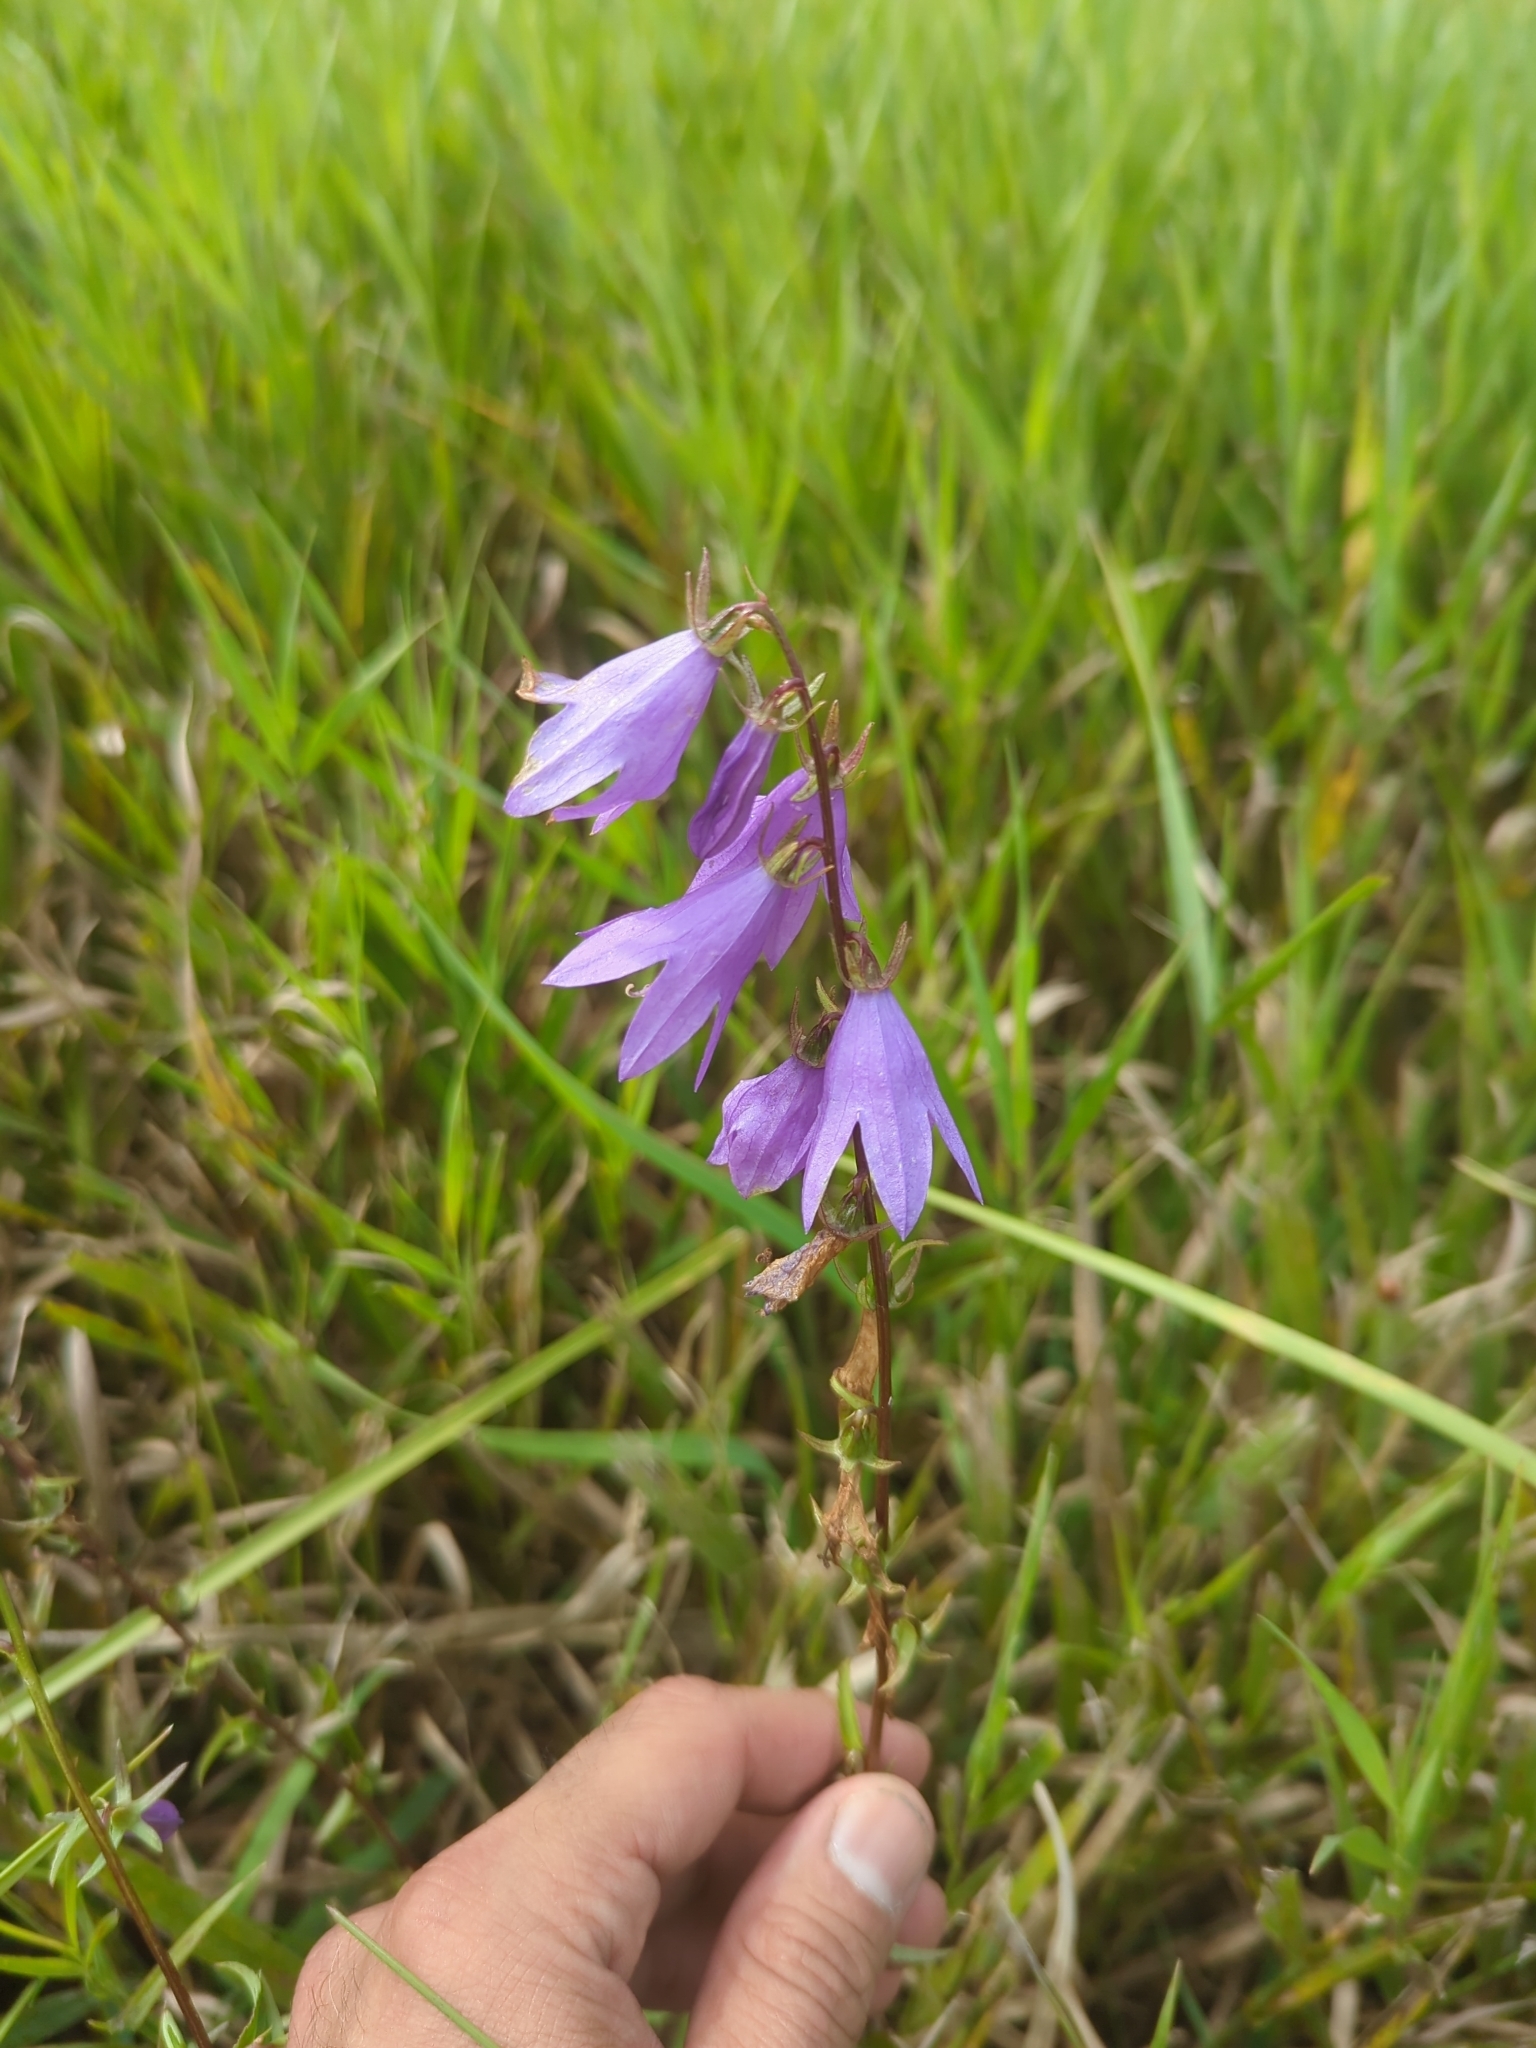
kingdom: Plantae
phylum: Tracheophyta
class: Magnoliopsida
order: Asterales
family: Campanulaceae
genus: Campanula
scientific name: Campanula rapunculoides
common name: Creeping bellflower
